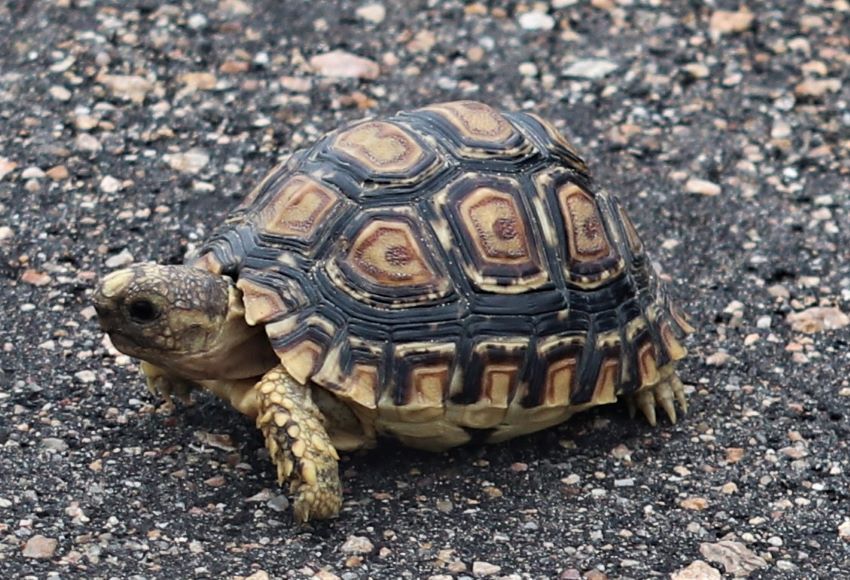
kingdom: Animalia
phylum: Chordata
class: Testudines
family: Testudinidae
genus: Stigmochelys
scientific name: Stigmochelys pardalis
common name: Leopard tortoise
